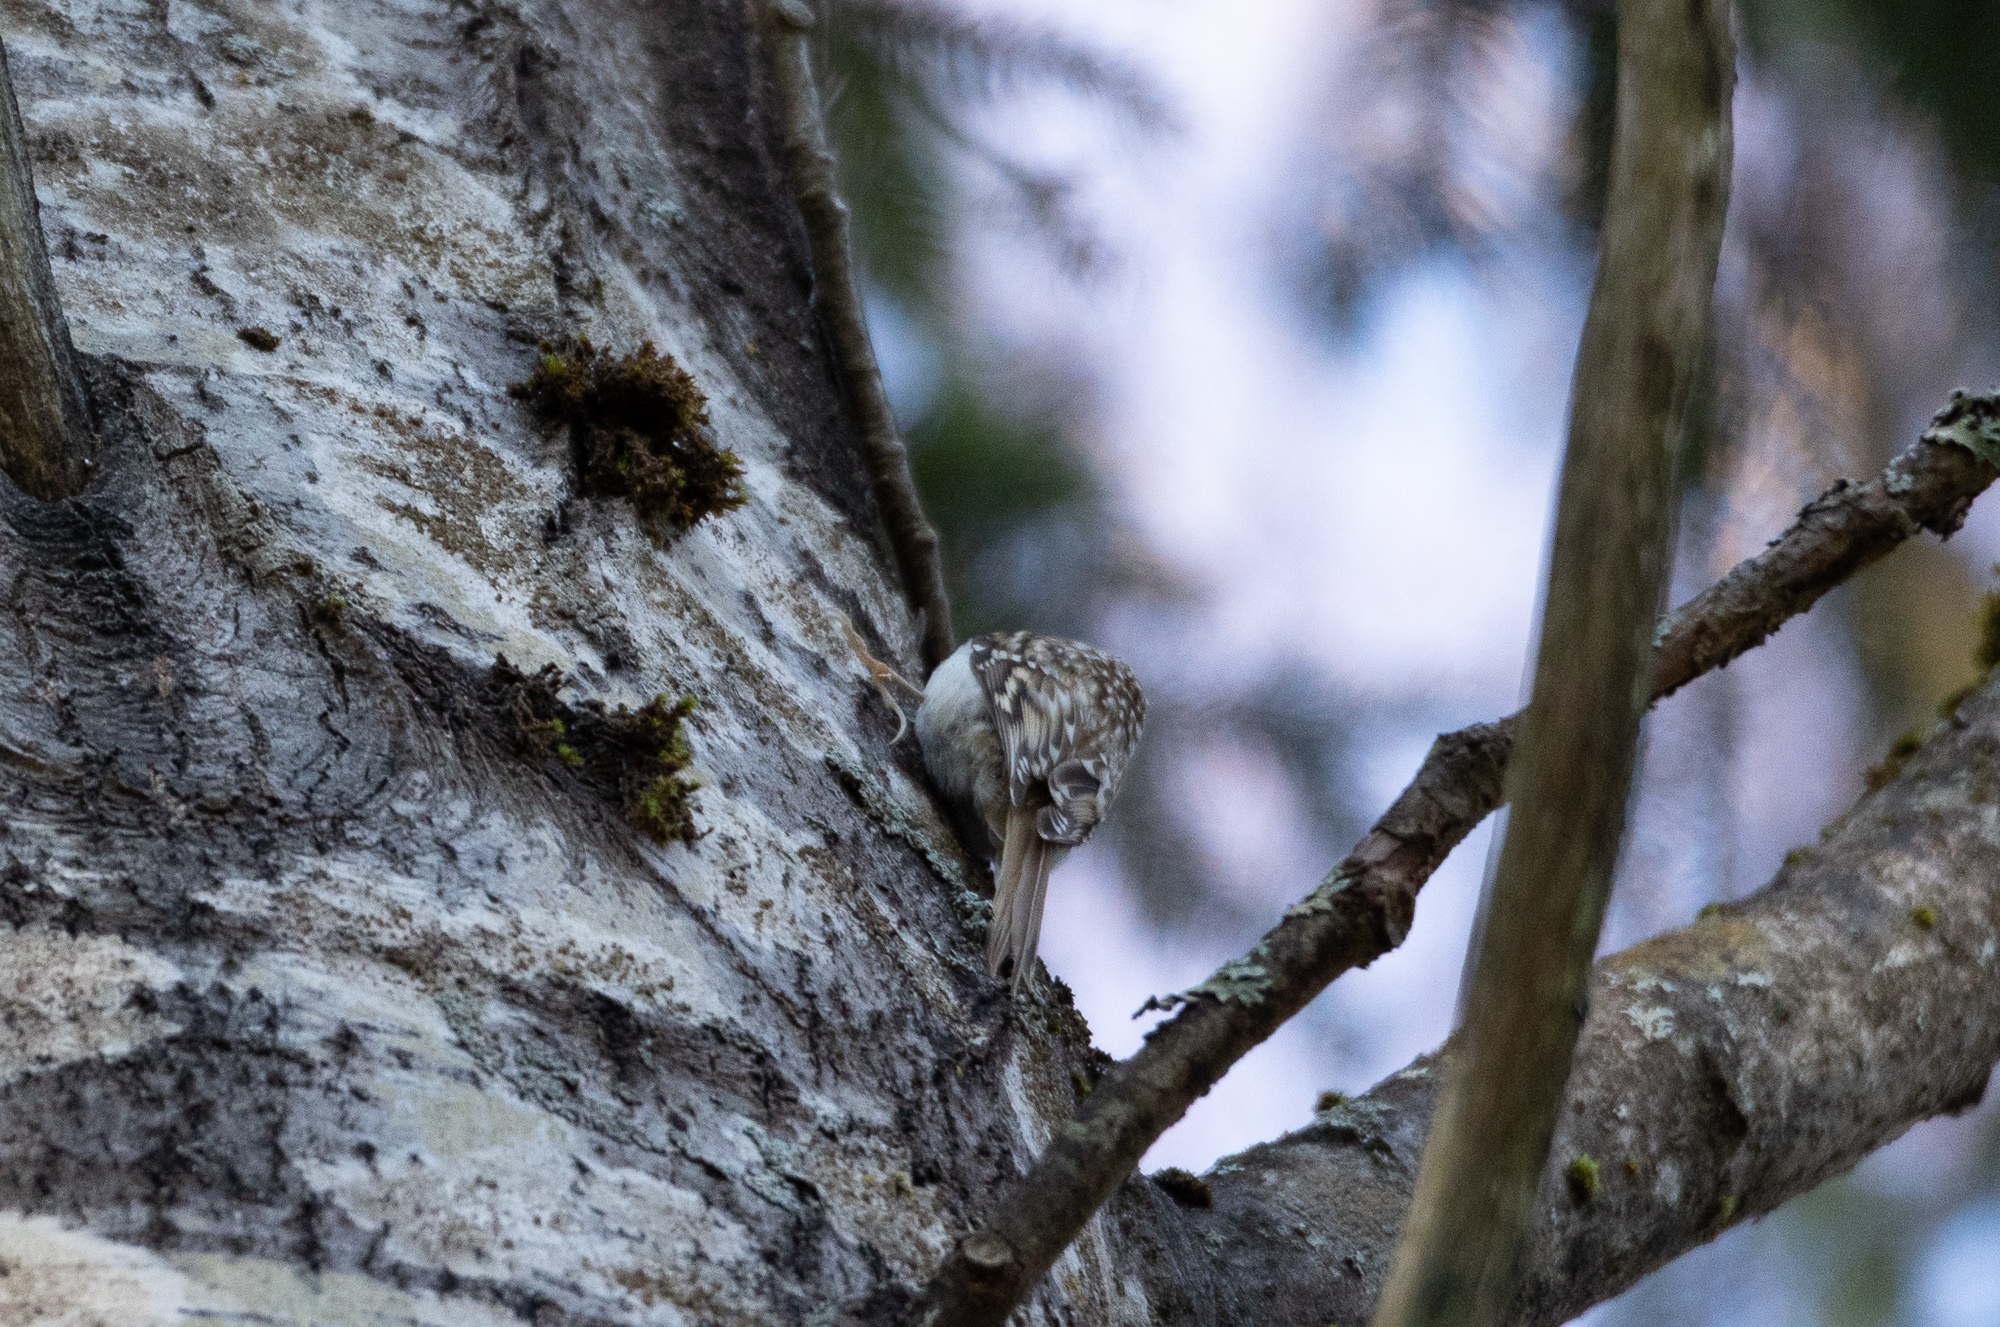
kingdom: Animalia
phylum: Chordata
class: Aves
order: Passeriformes
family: Certhiidae
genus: Certhia
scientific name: Certhia familiaris
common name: Eurasian treecreeper
